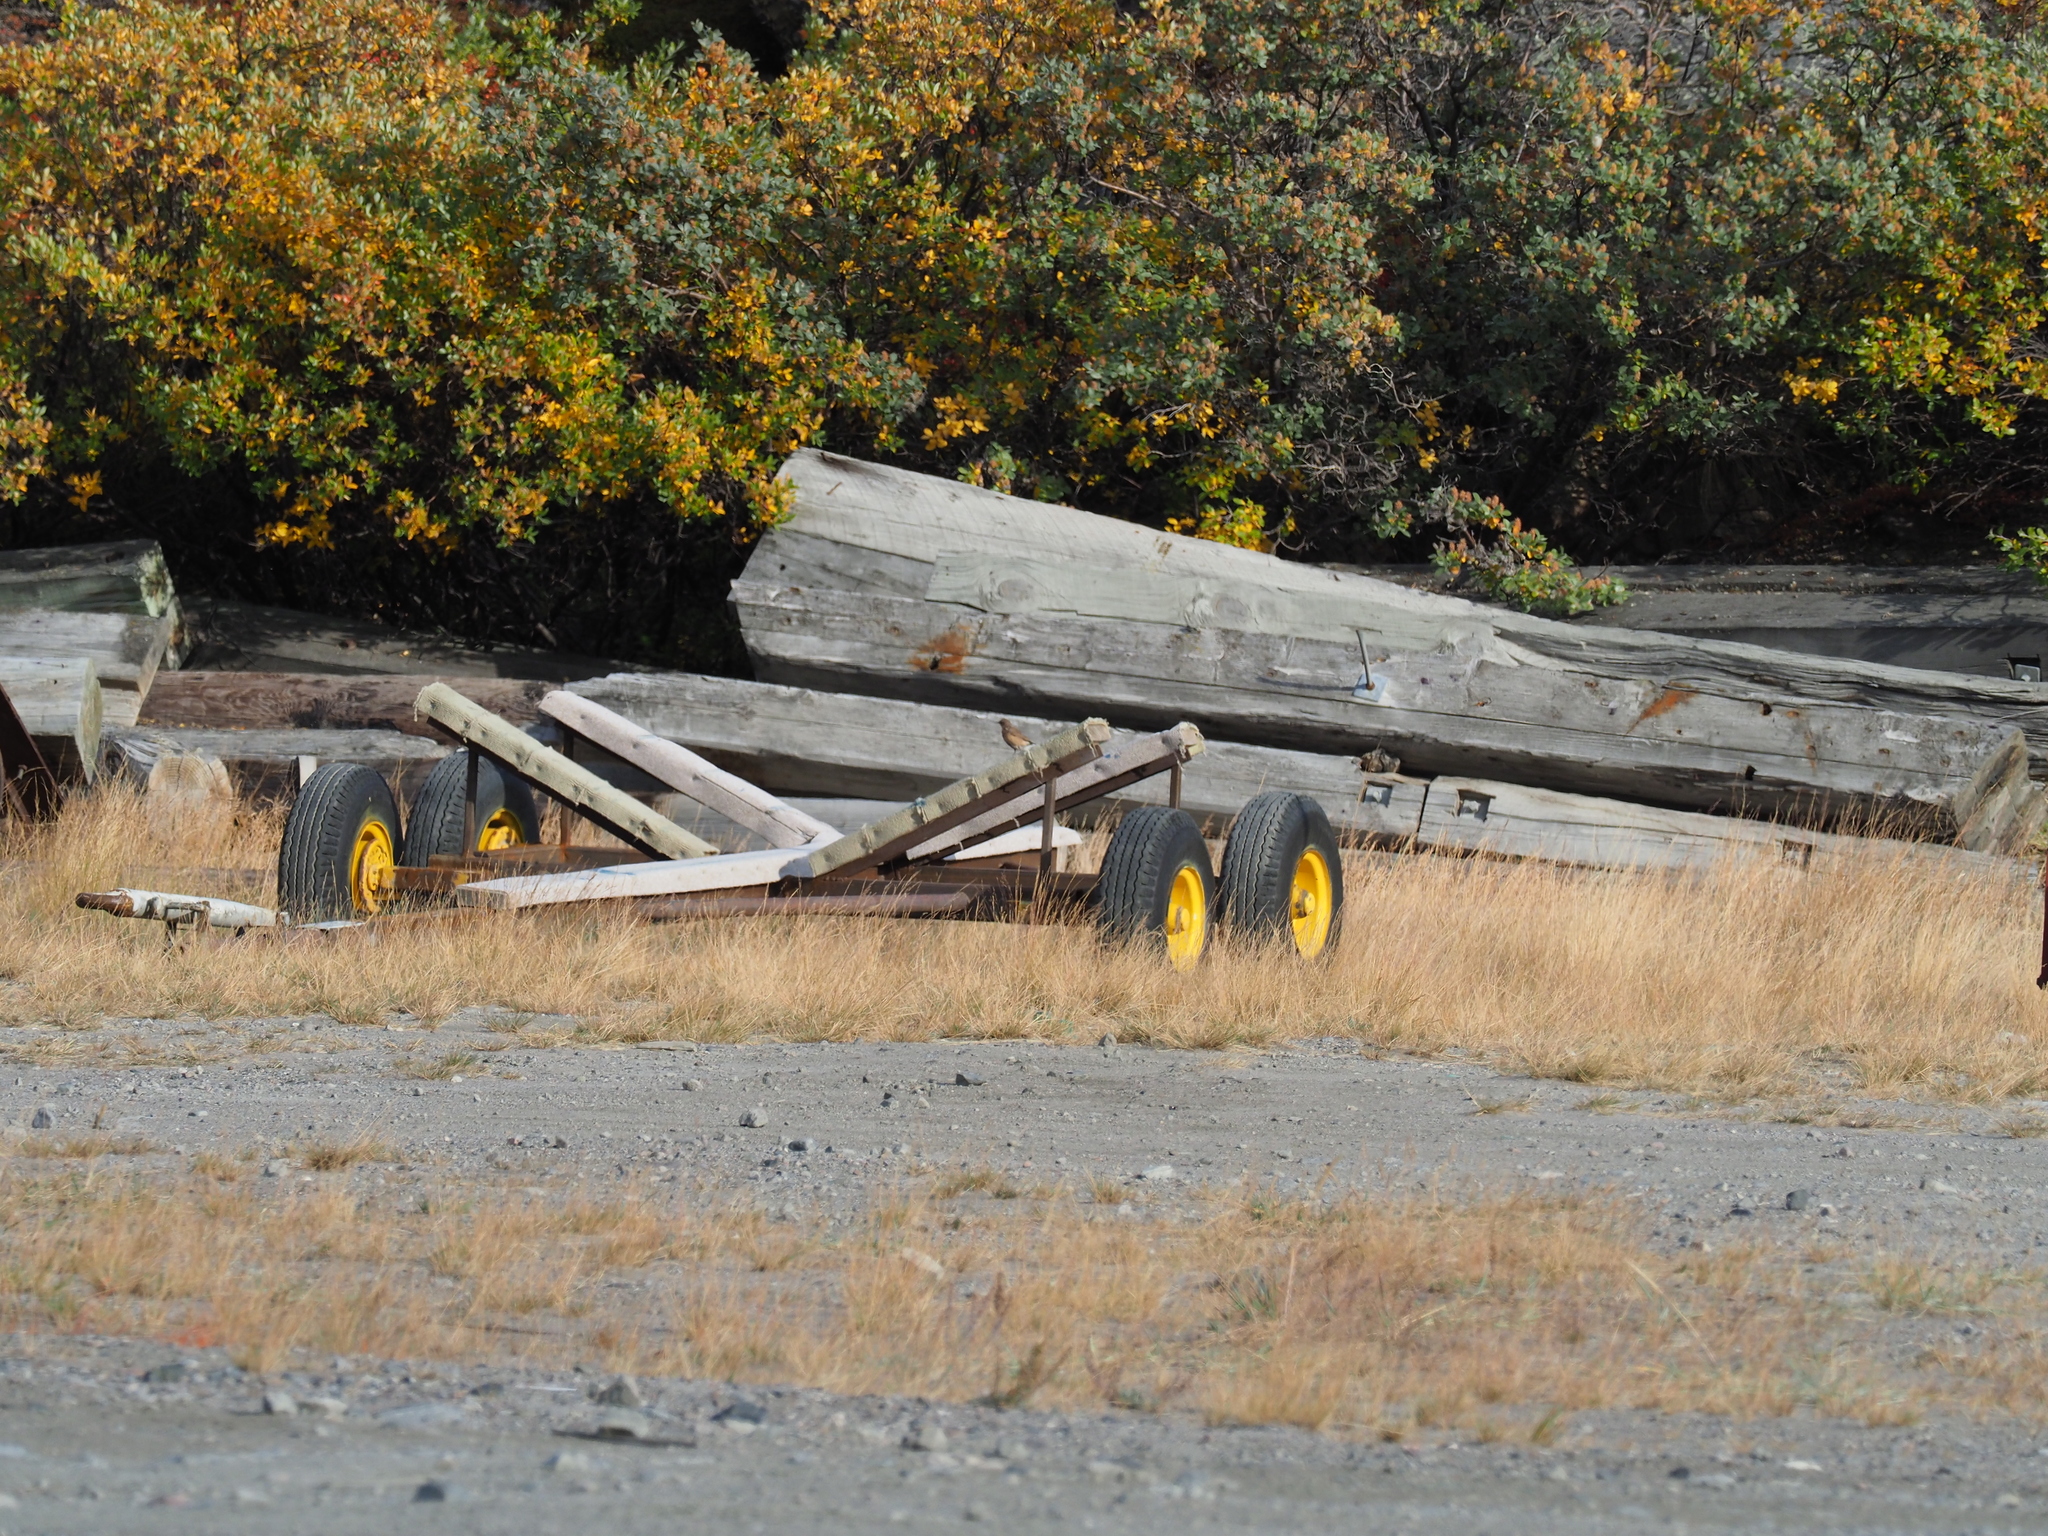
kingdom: Animalia
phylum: Chordata
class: Aves
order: Passeriformes
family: Muscicapidae
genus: Oenanthe
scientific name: Oenanthe oenanthe
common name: Northern wheatear
